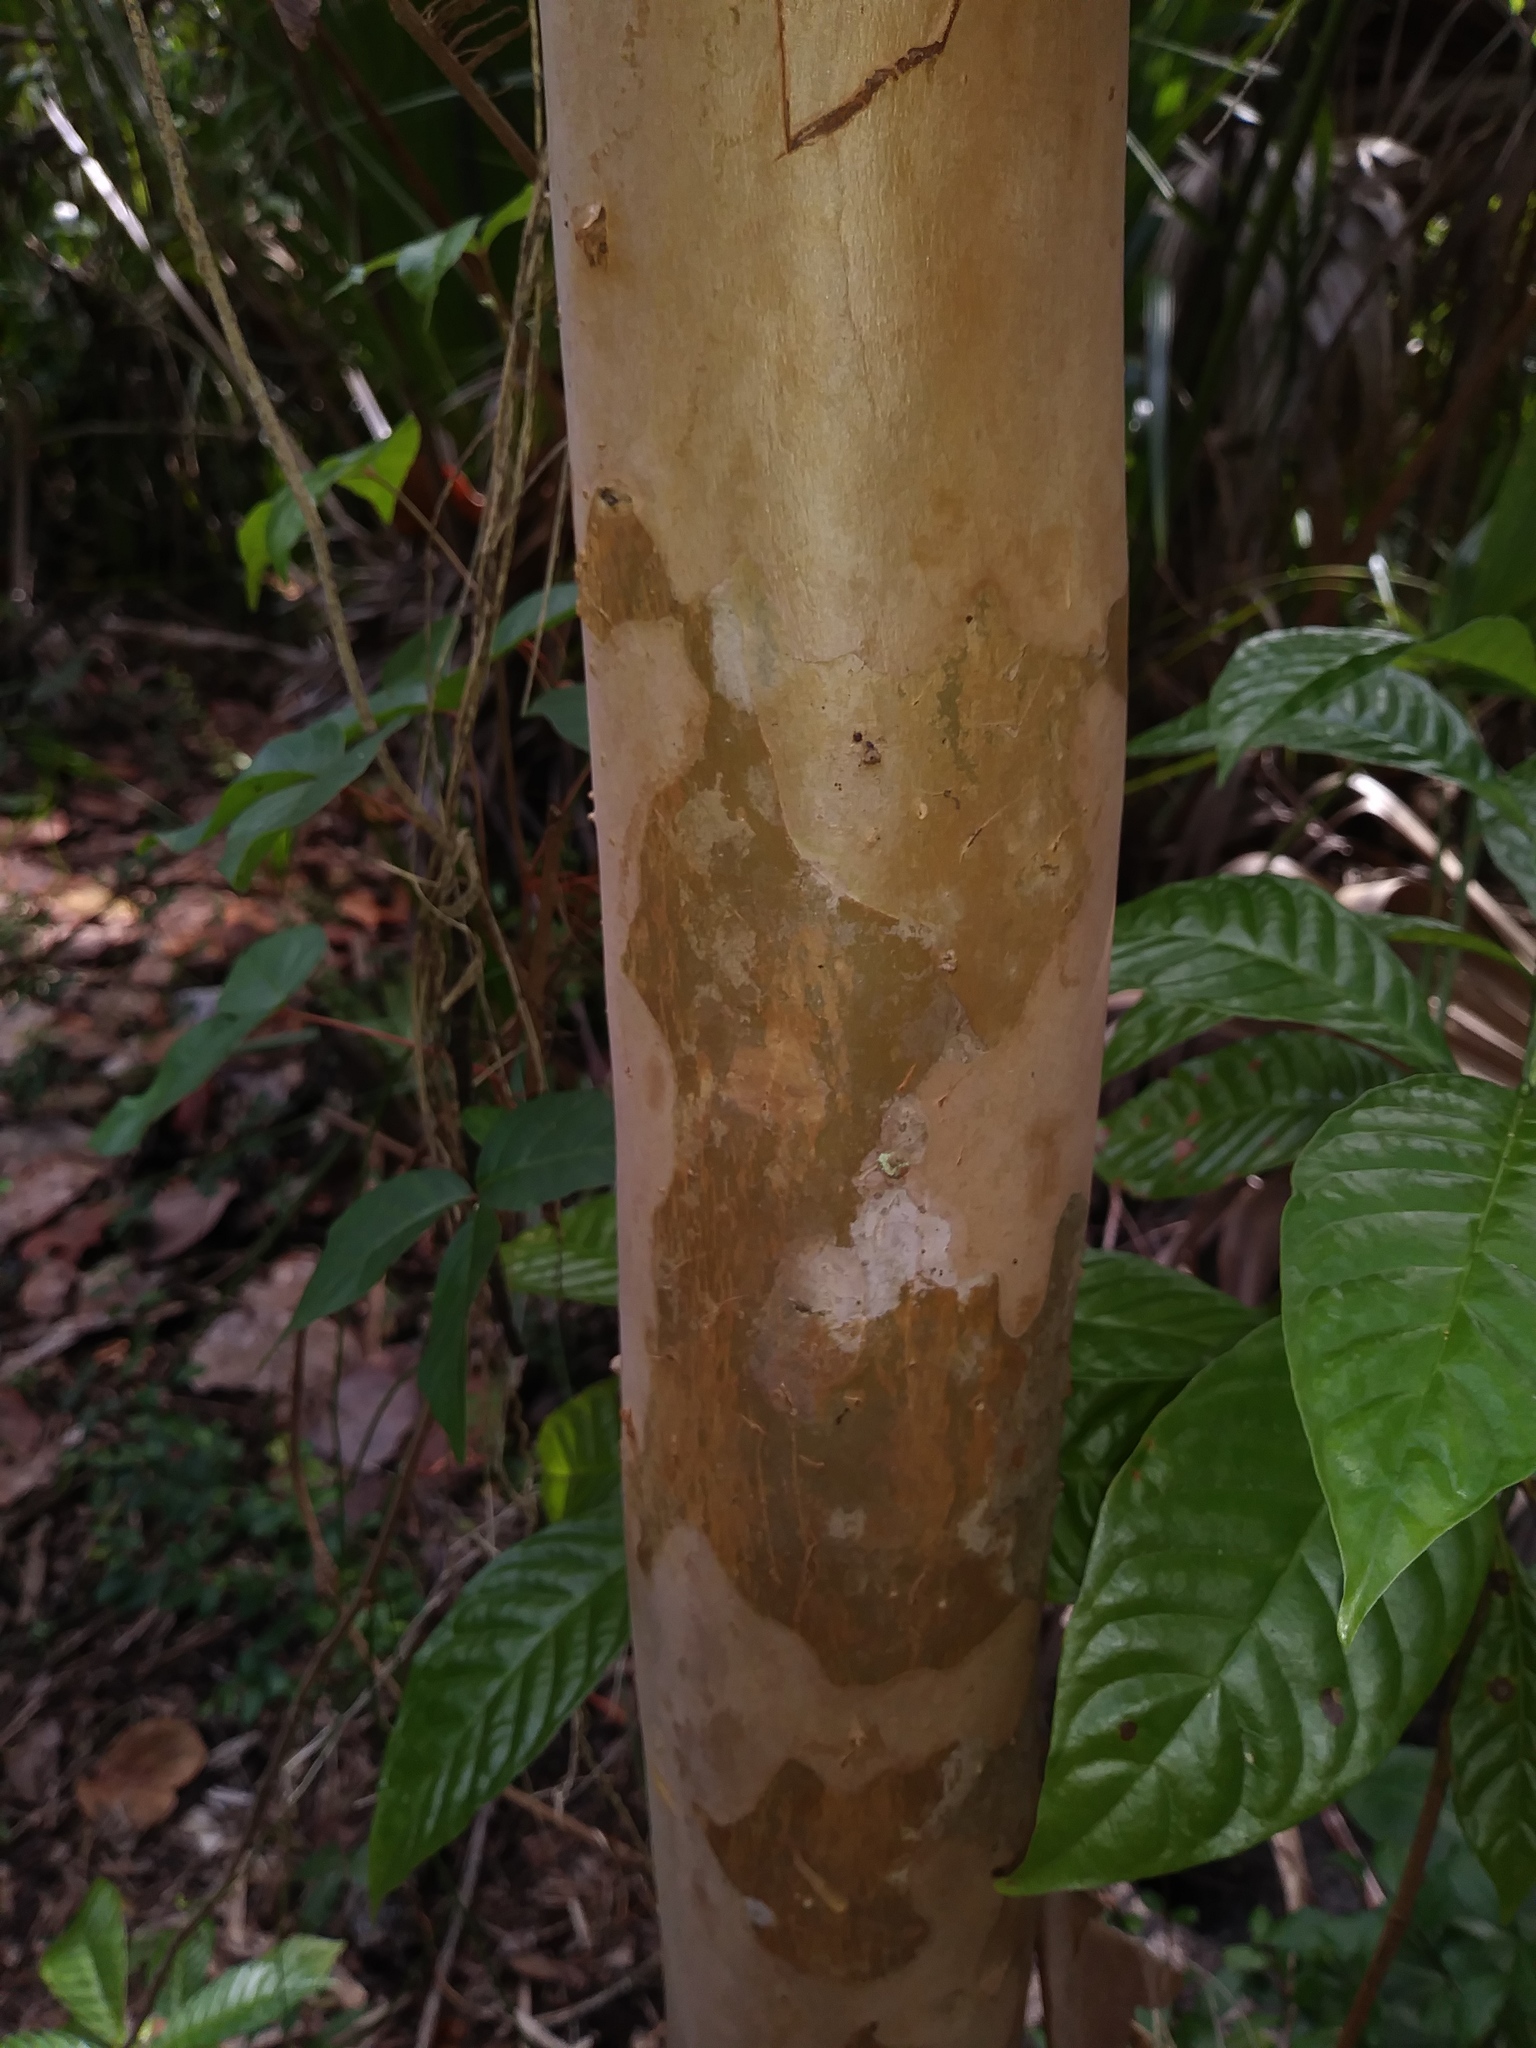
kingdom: Plantae
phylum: Tracheophyta
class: Magnoliopsida
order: Myrtales
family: Myrtaceae
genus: Myrcianthes
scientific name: Myrcianthes fragrans
